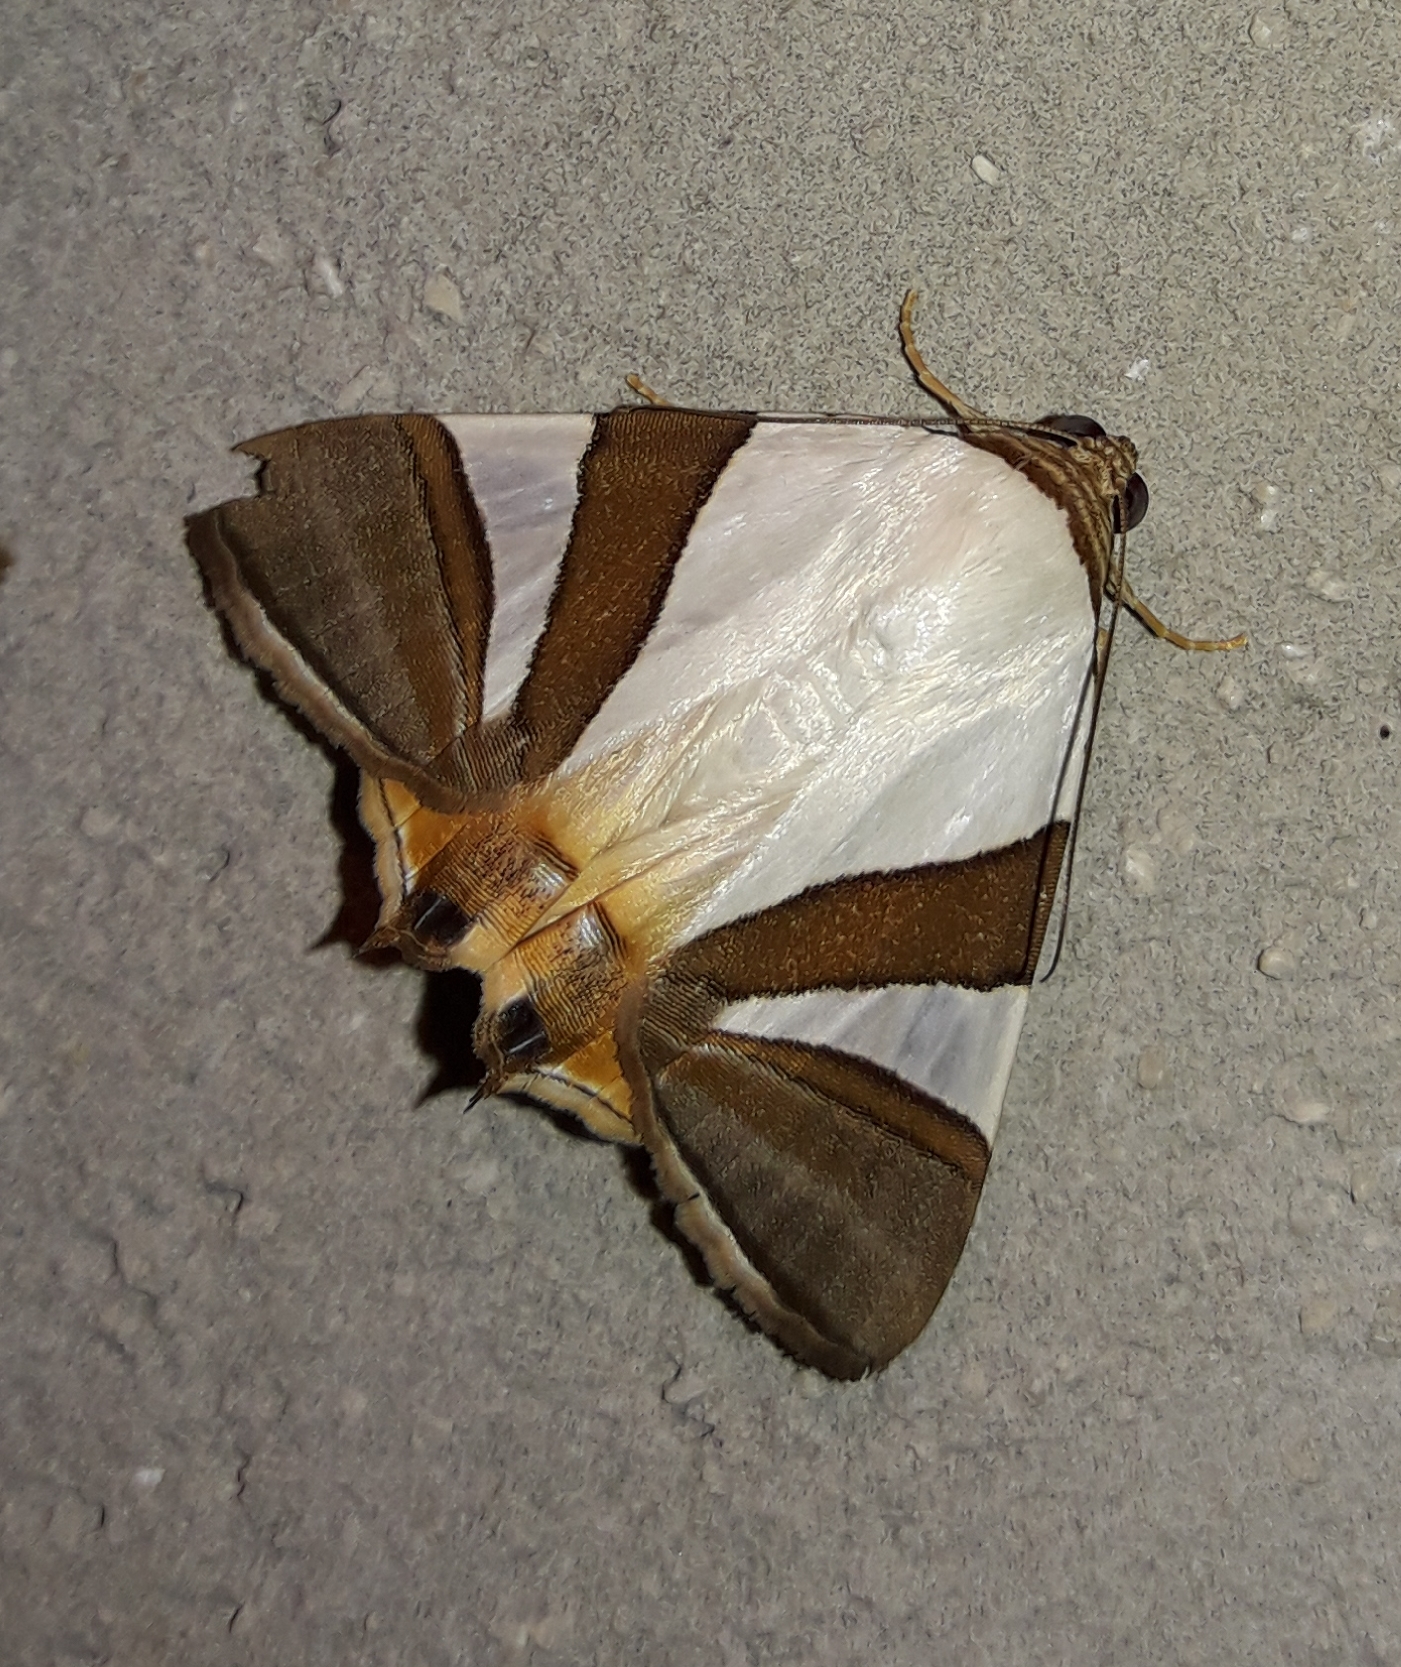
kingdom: Animalia
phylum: Arthropoda
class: Insecta
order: Lepidoptera
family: Erebidae
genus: Eulepidotis
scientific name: Eulepidotis electa
